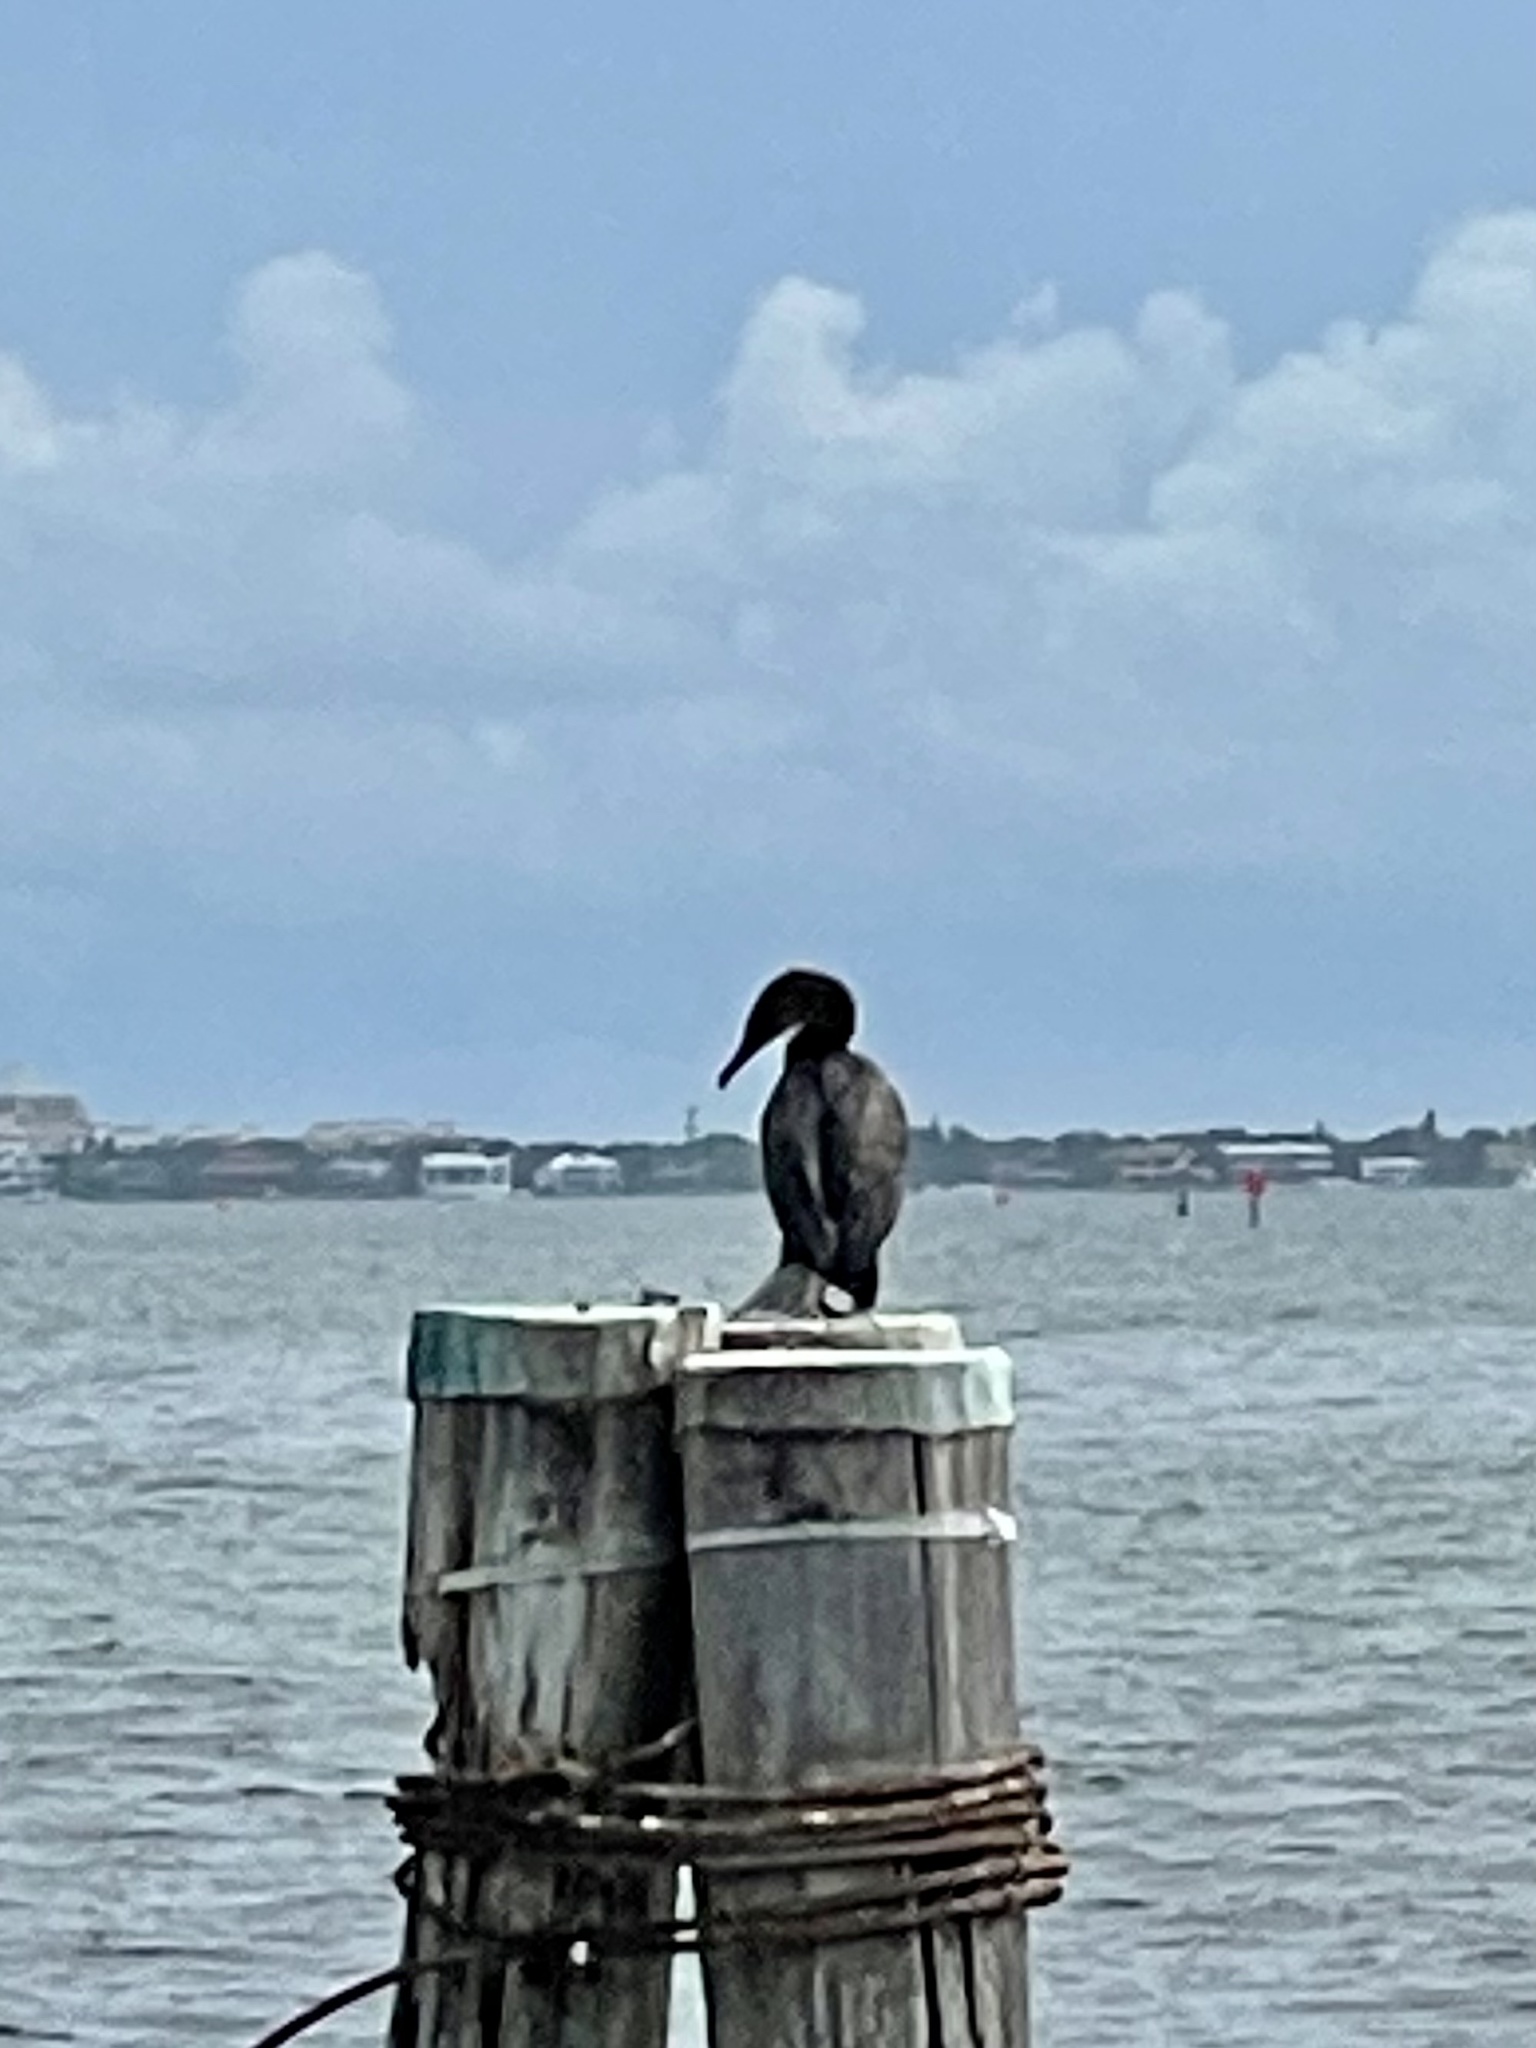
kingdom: Animalia
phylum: Chordata
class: Aves
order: Suliformes
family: Phalacrocoracidae
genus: Phalacrocorax
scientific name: Phalacrocorax auritus
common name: Double-crested cormorant
